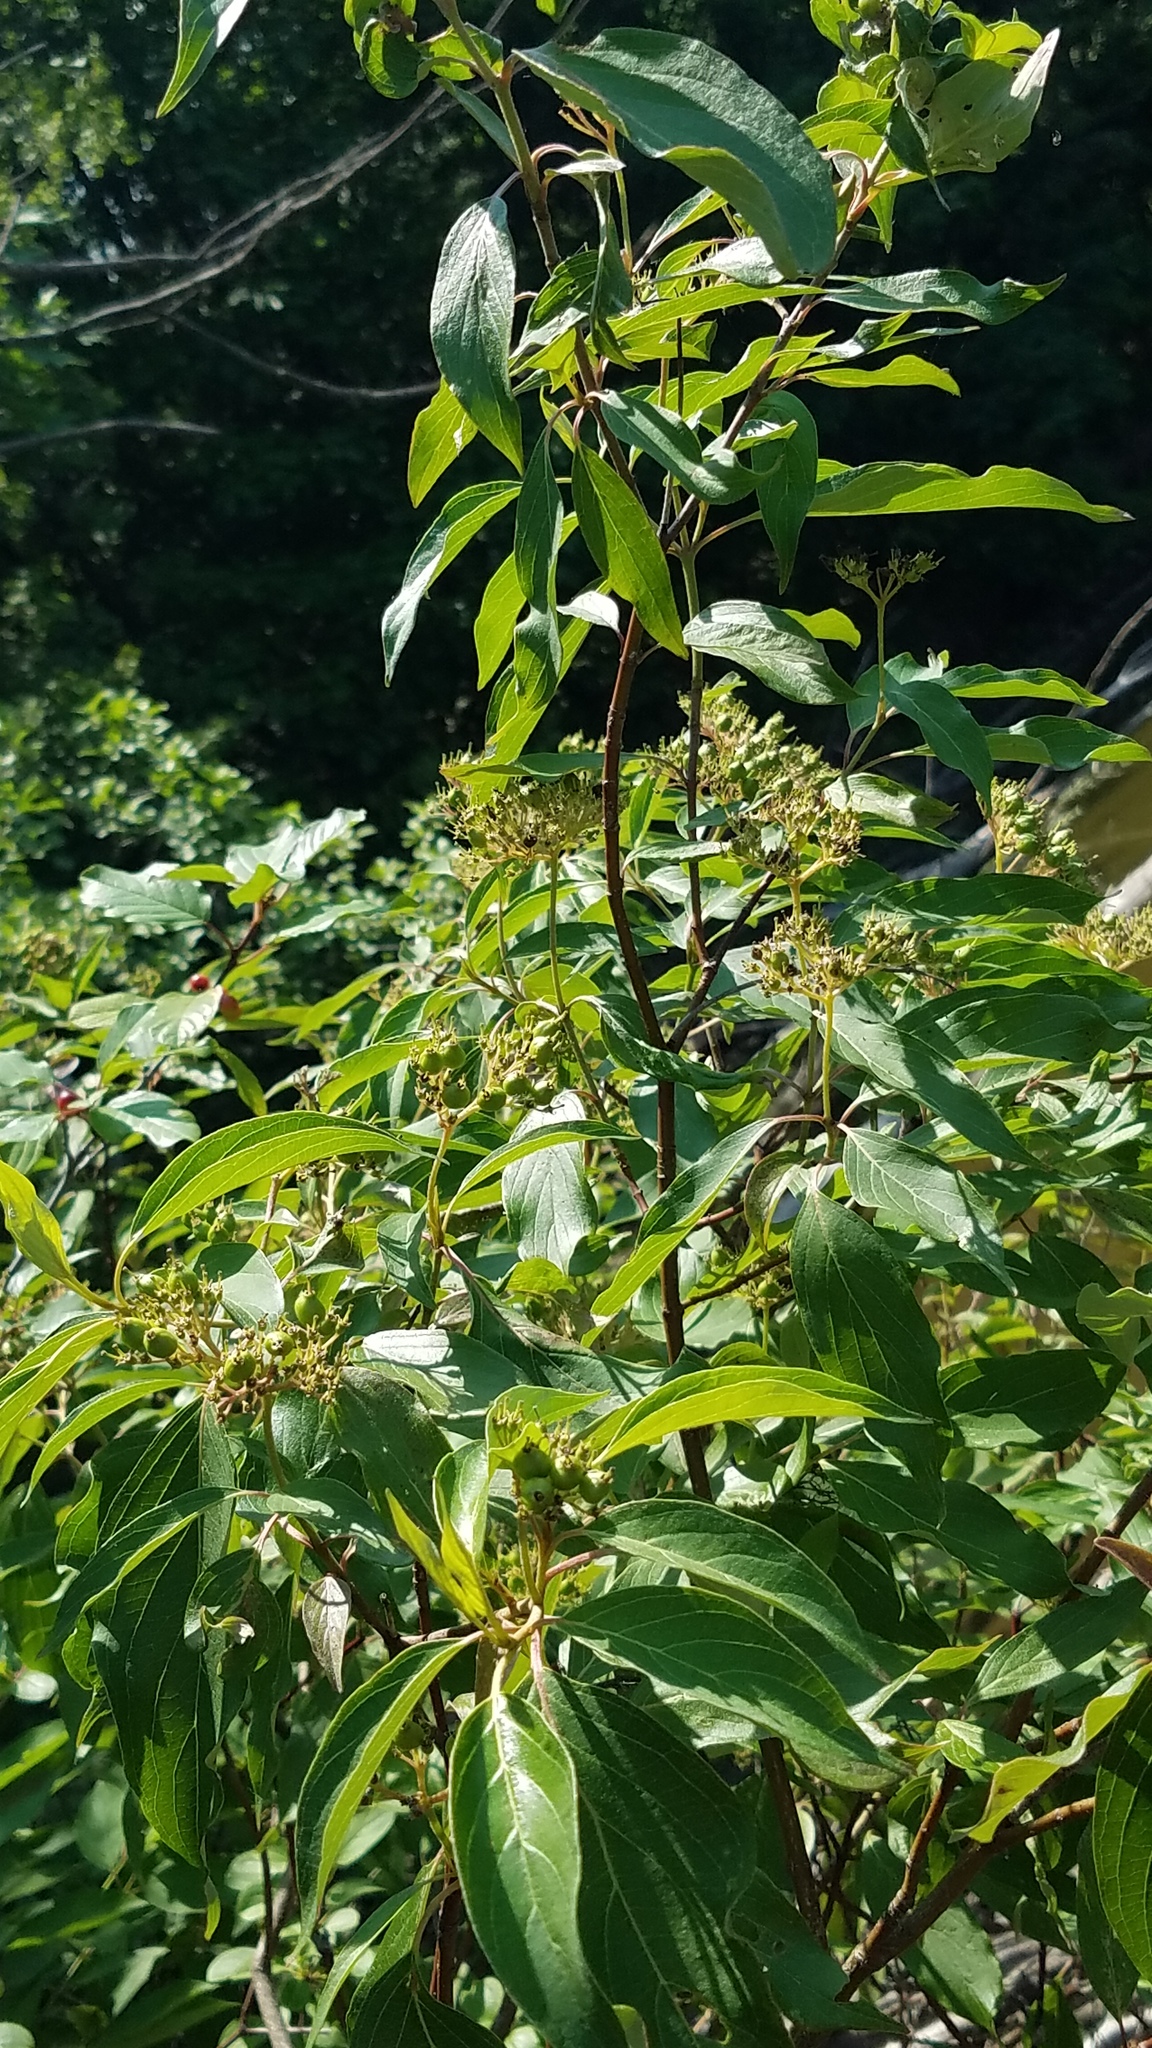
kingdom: Plantae
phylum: Tracheophyta
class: Magnoliopsida
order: Cornales
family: Cornaceae
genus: Cornus
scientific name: Cornus amomum
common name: Silky dogwood
